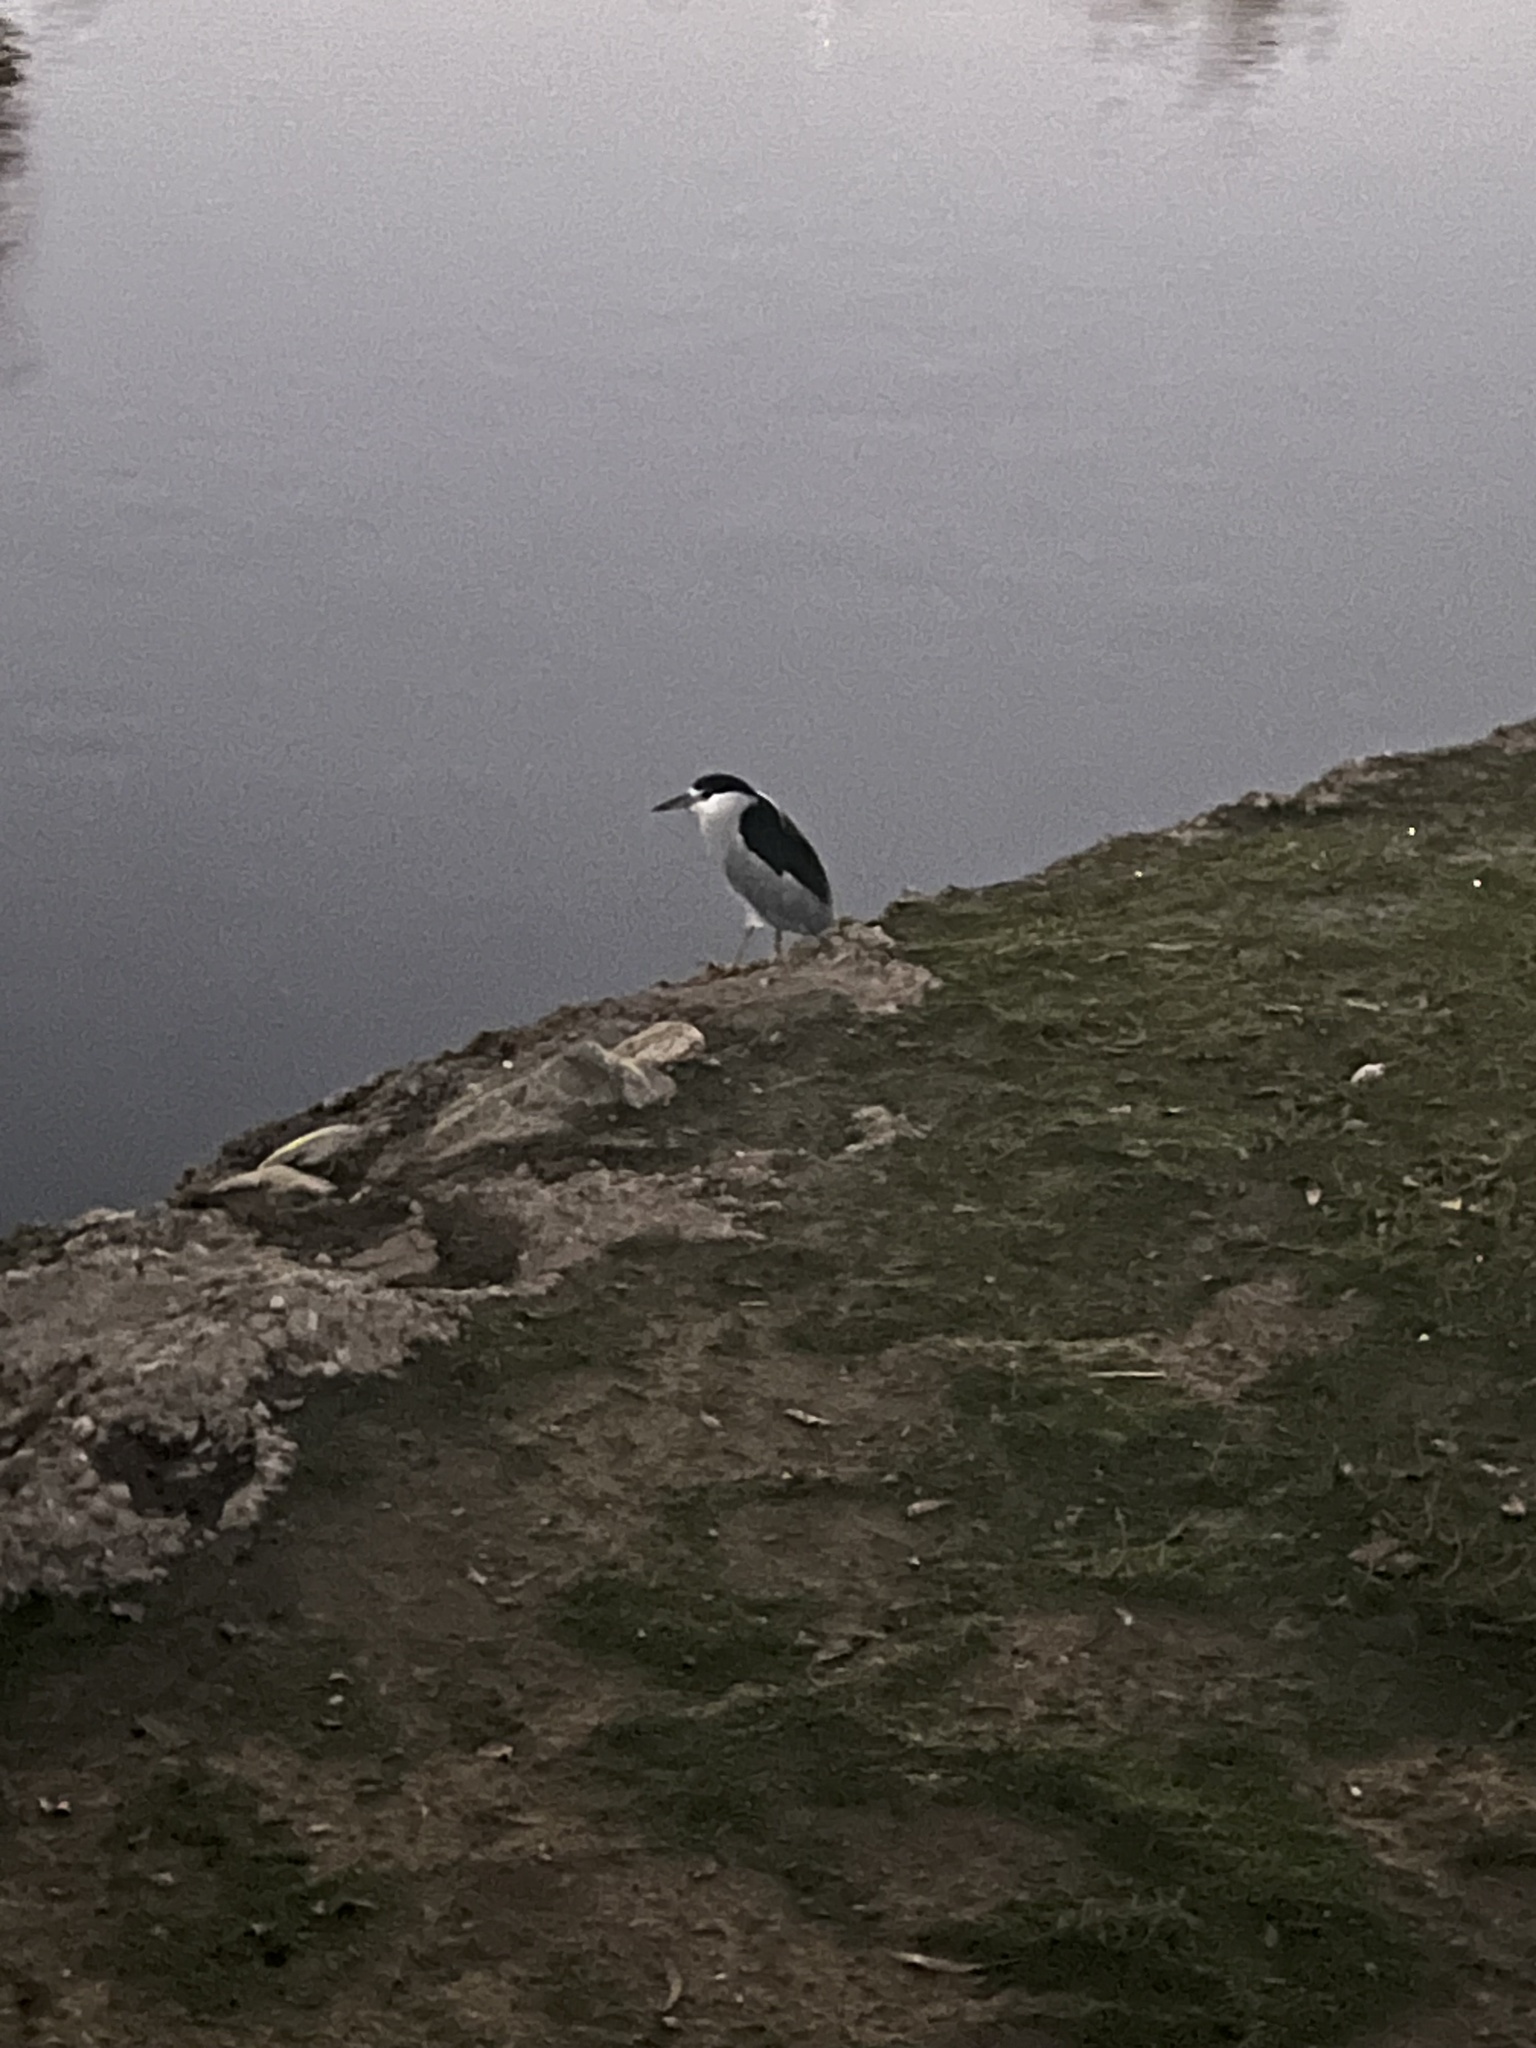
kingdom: Animalia
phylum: Chordata
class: Aves
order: Pelecaniformes
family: Ardeidae
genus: Nycticorax
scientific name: Nycticorax nycticorax
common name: Black-crowned night heron
